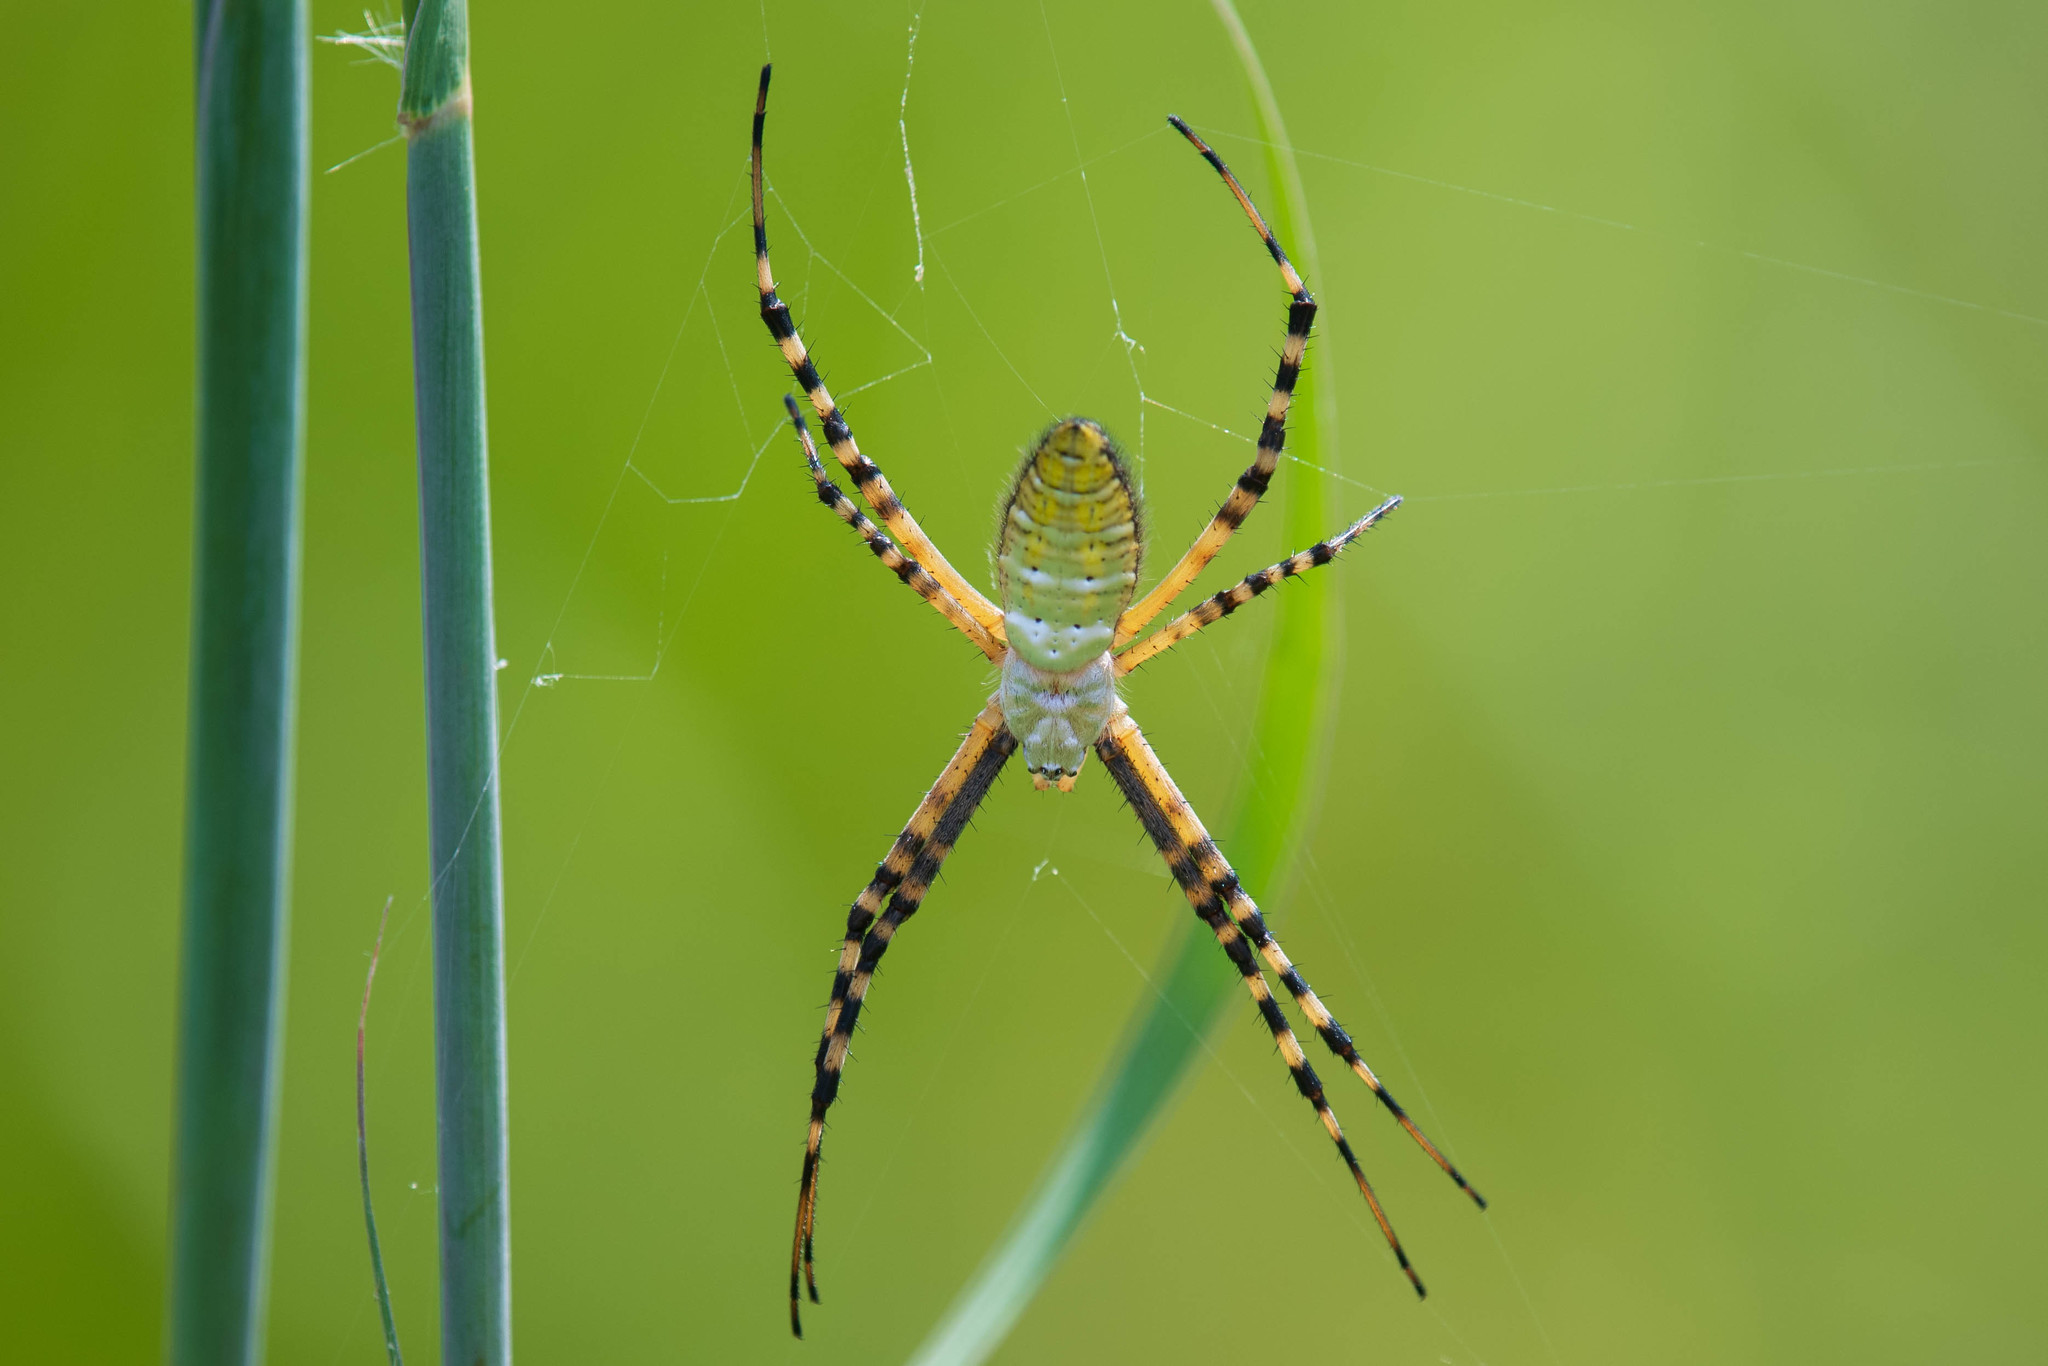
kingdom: Animalia
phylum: Arthropoda
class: Arachnida
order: Araneae
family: Araneidae
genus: Argiope
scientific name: Argiope trifasciata
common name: Banded garden spider
